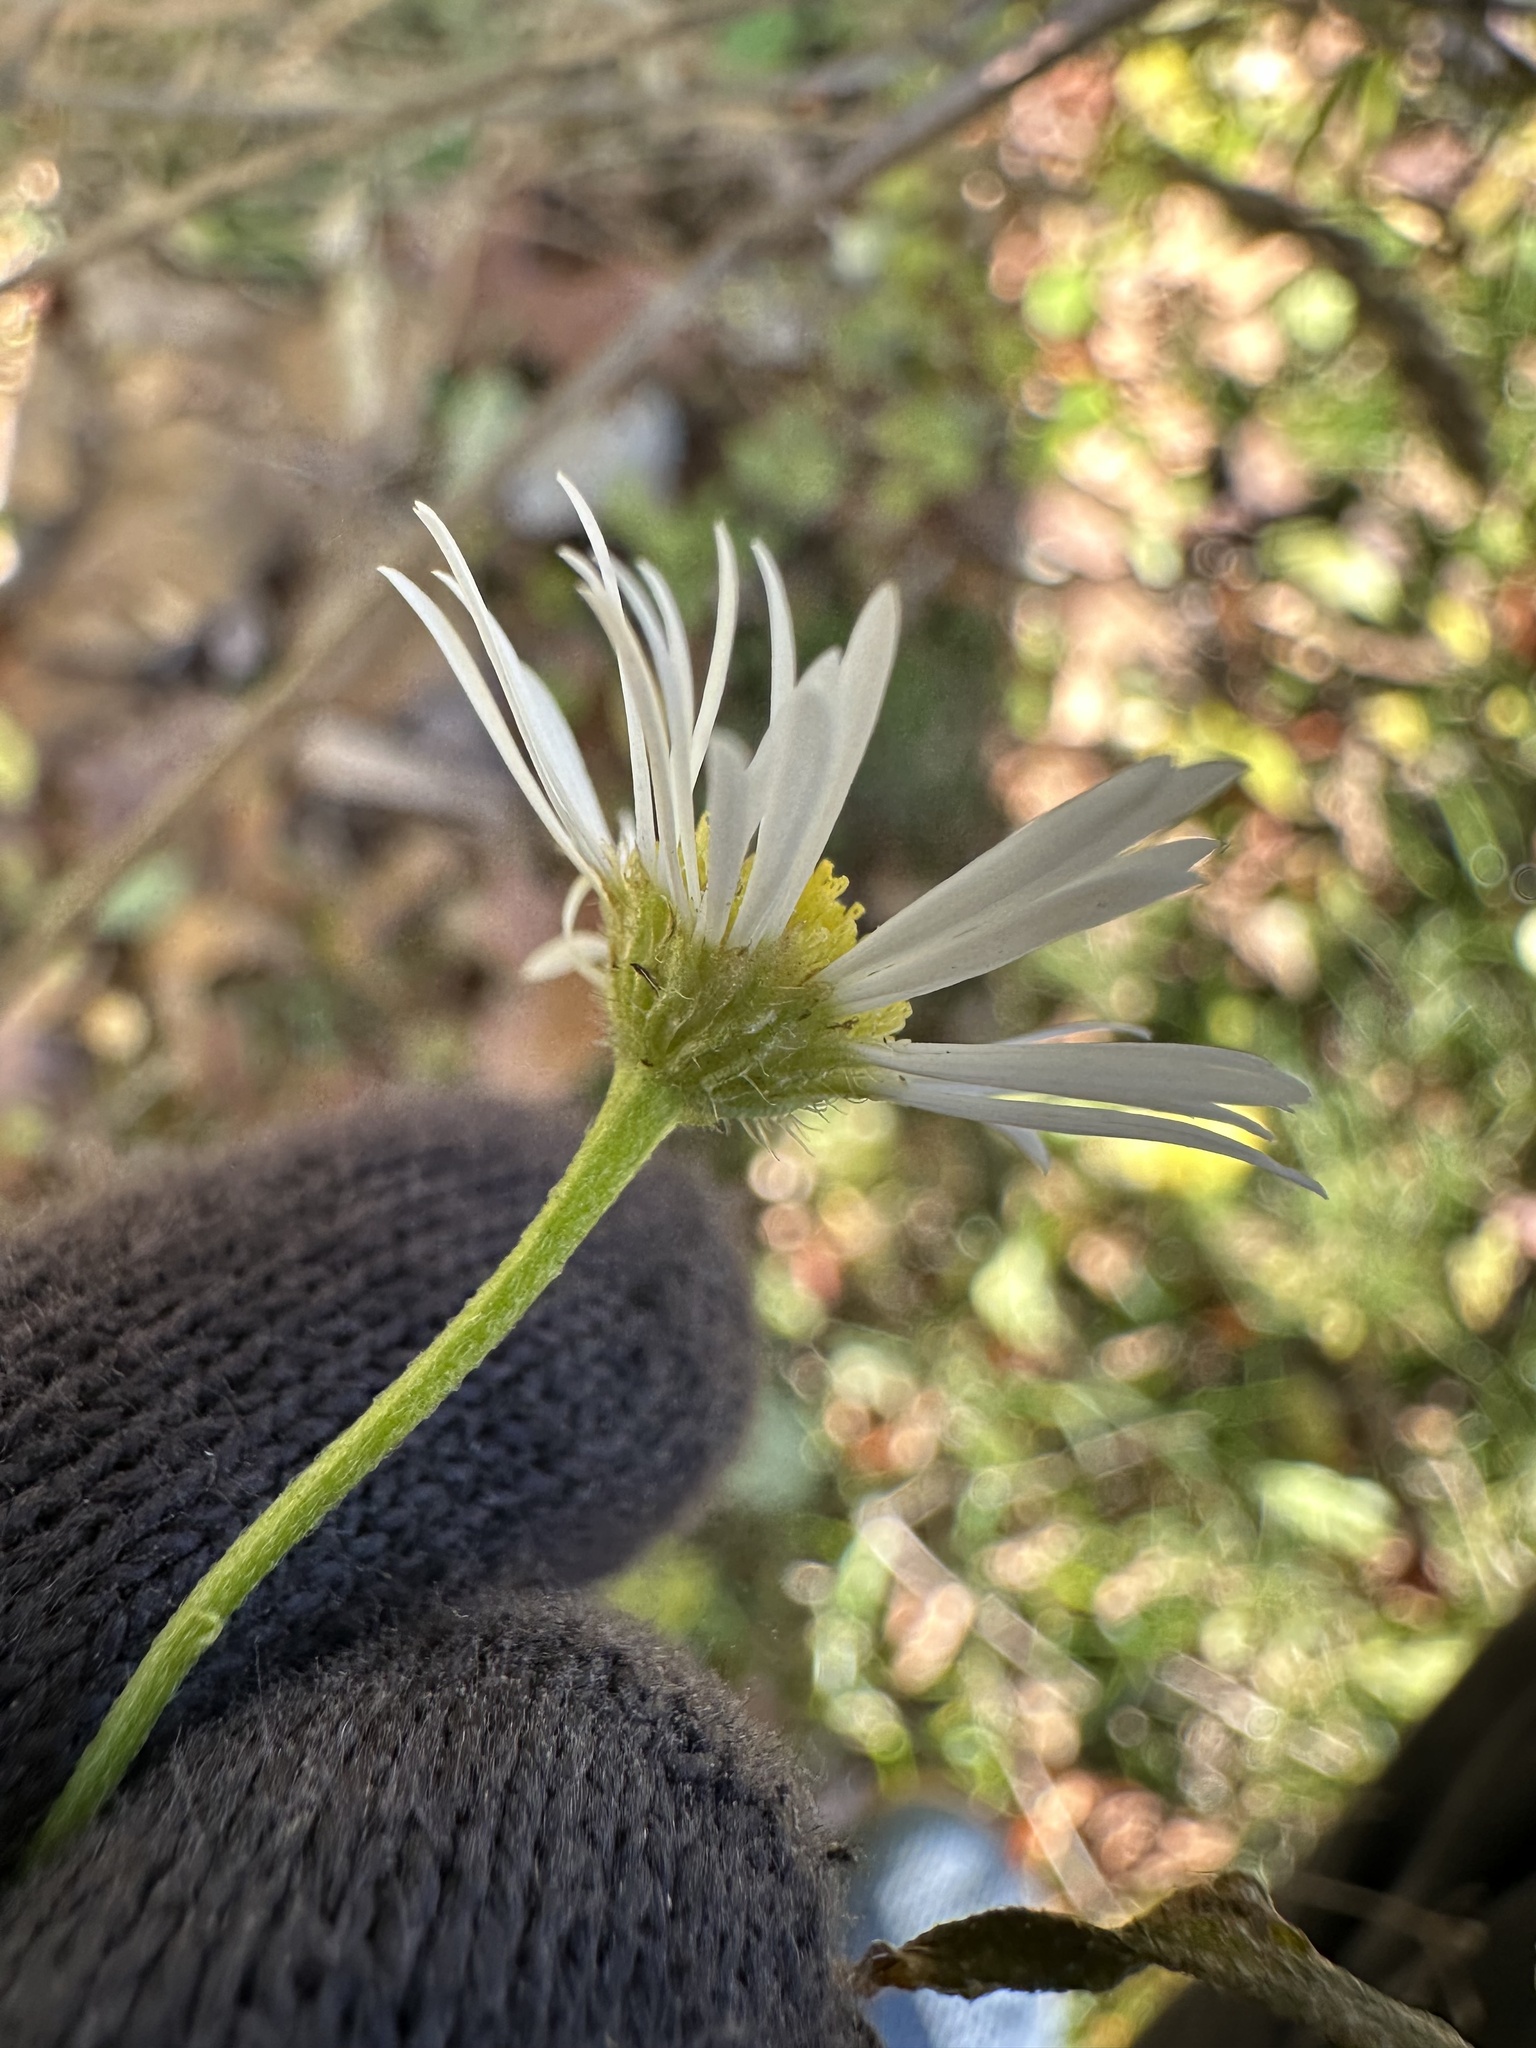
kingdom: Plantae
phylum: Tracheophyta
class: Magnoliopsida
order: Asterales
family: Asteraceae
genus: Erigeron
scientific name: Erigeron annuus
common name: Tall fleabane
